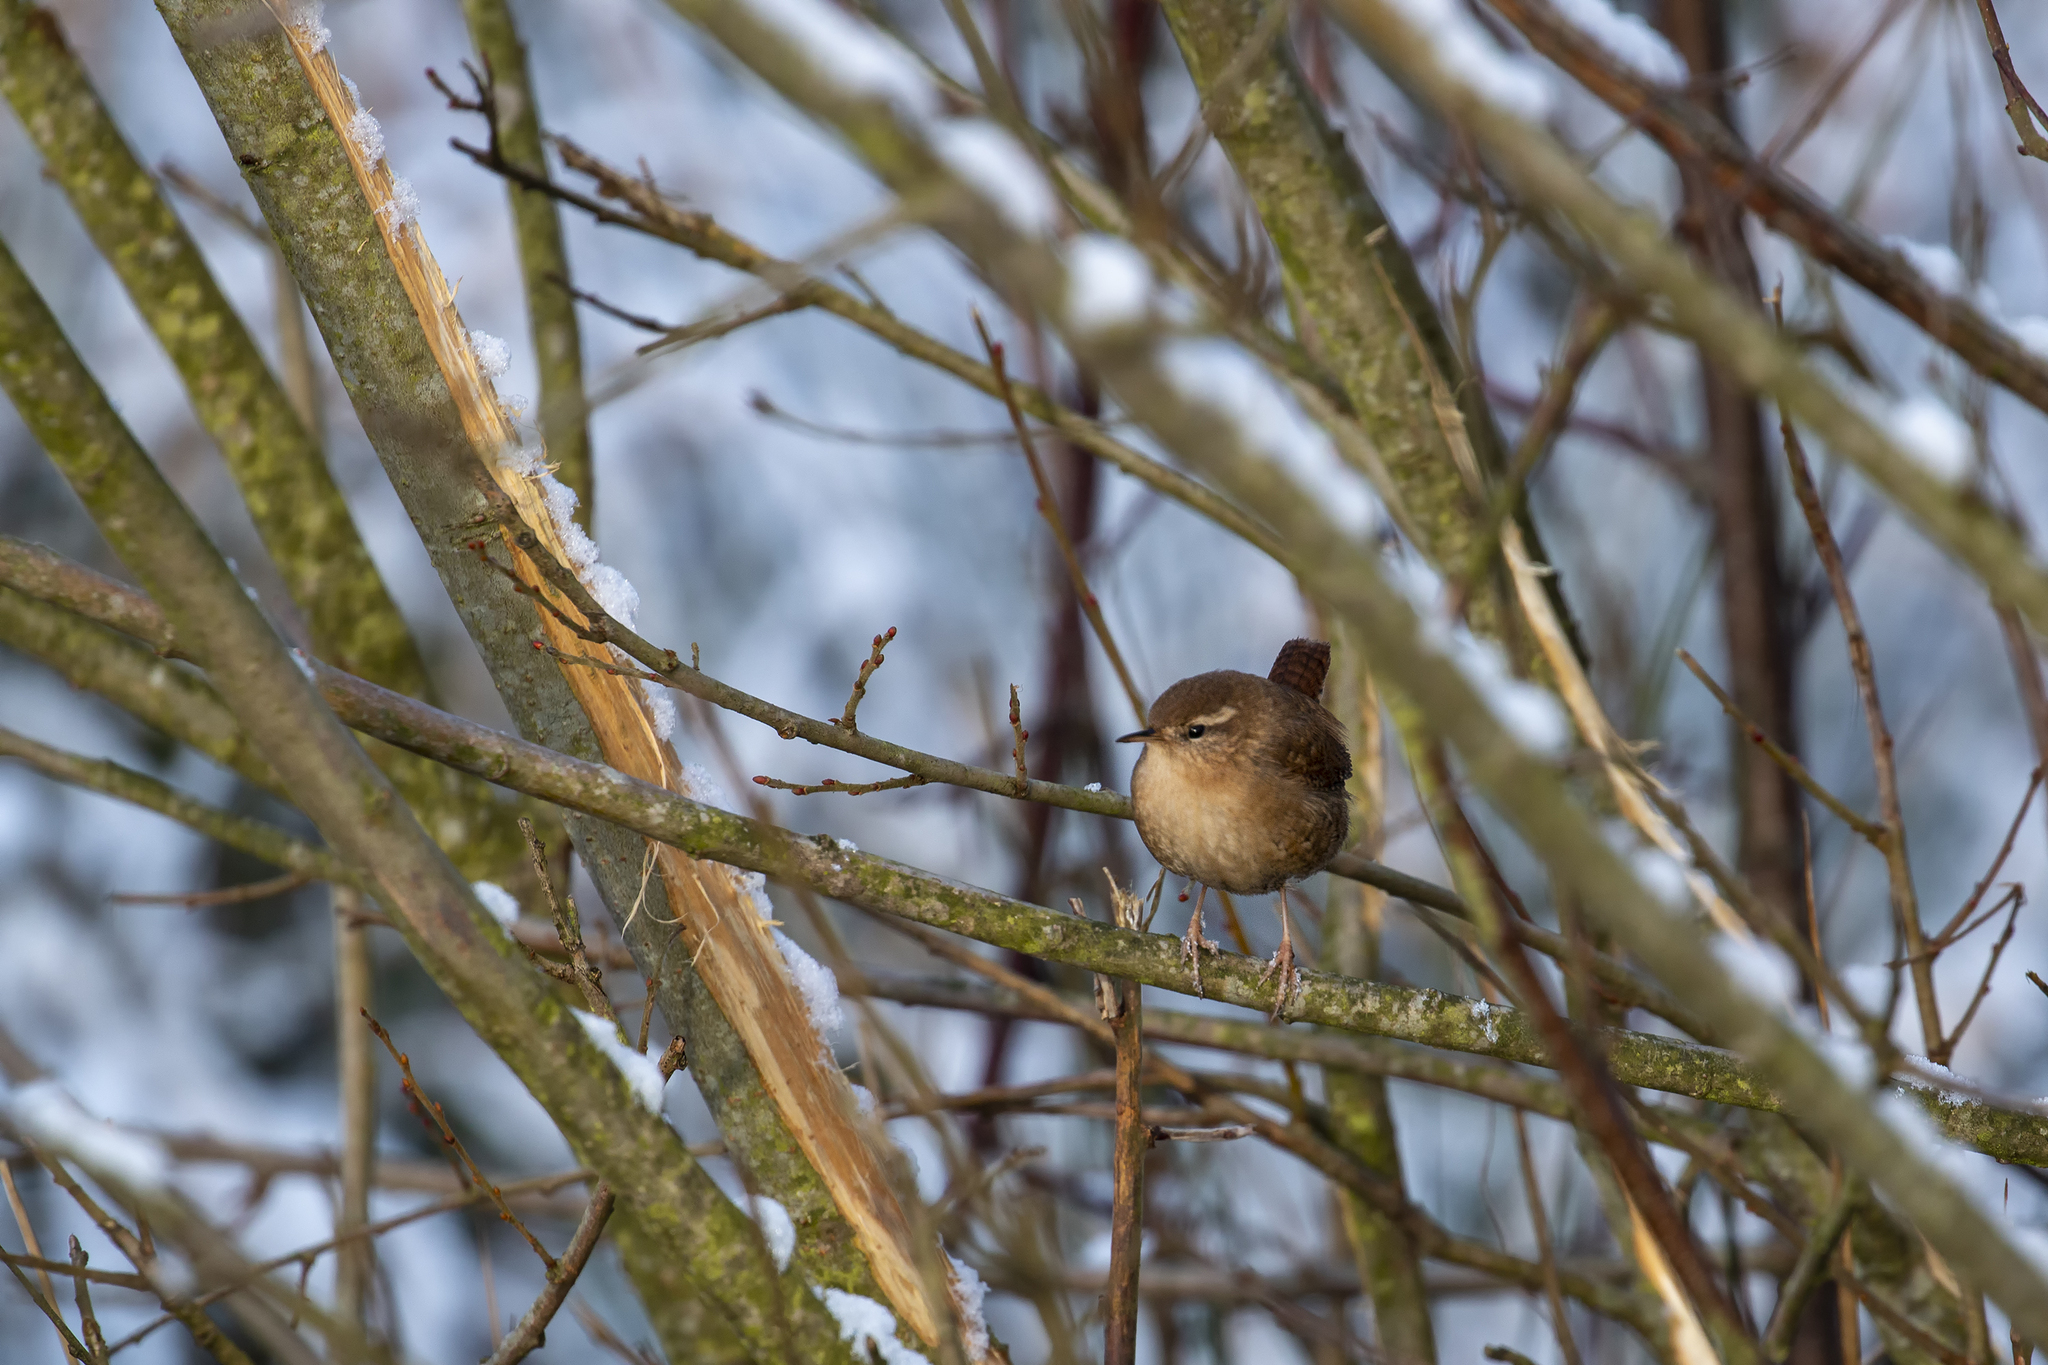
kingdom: Animalia
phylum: Chordata
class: Aves
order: Passeriformes
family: Troglodytidae
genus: Troglodytes
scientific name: Troglodytes troglodytes
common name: Eurasian wren
